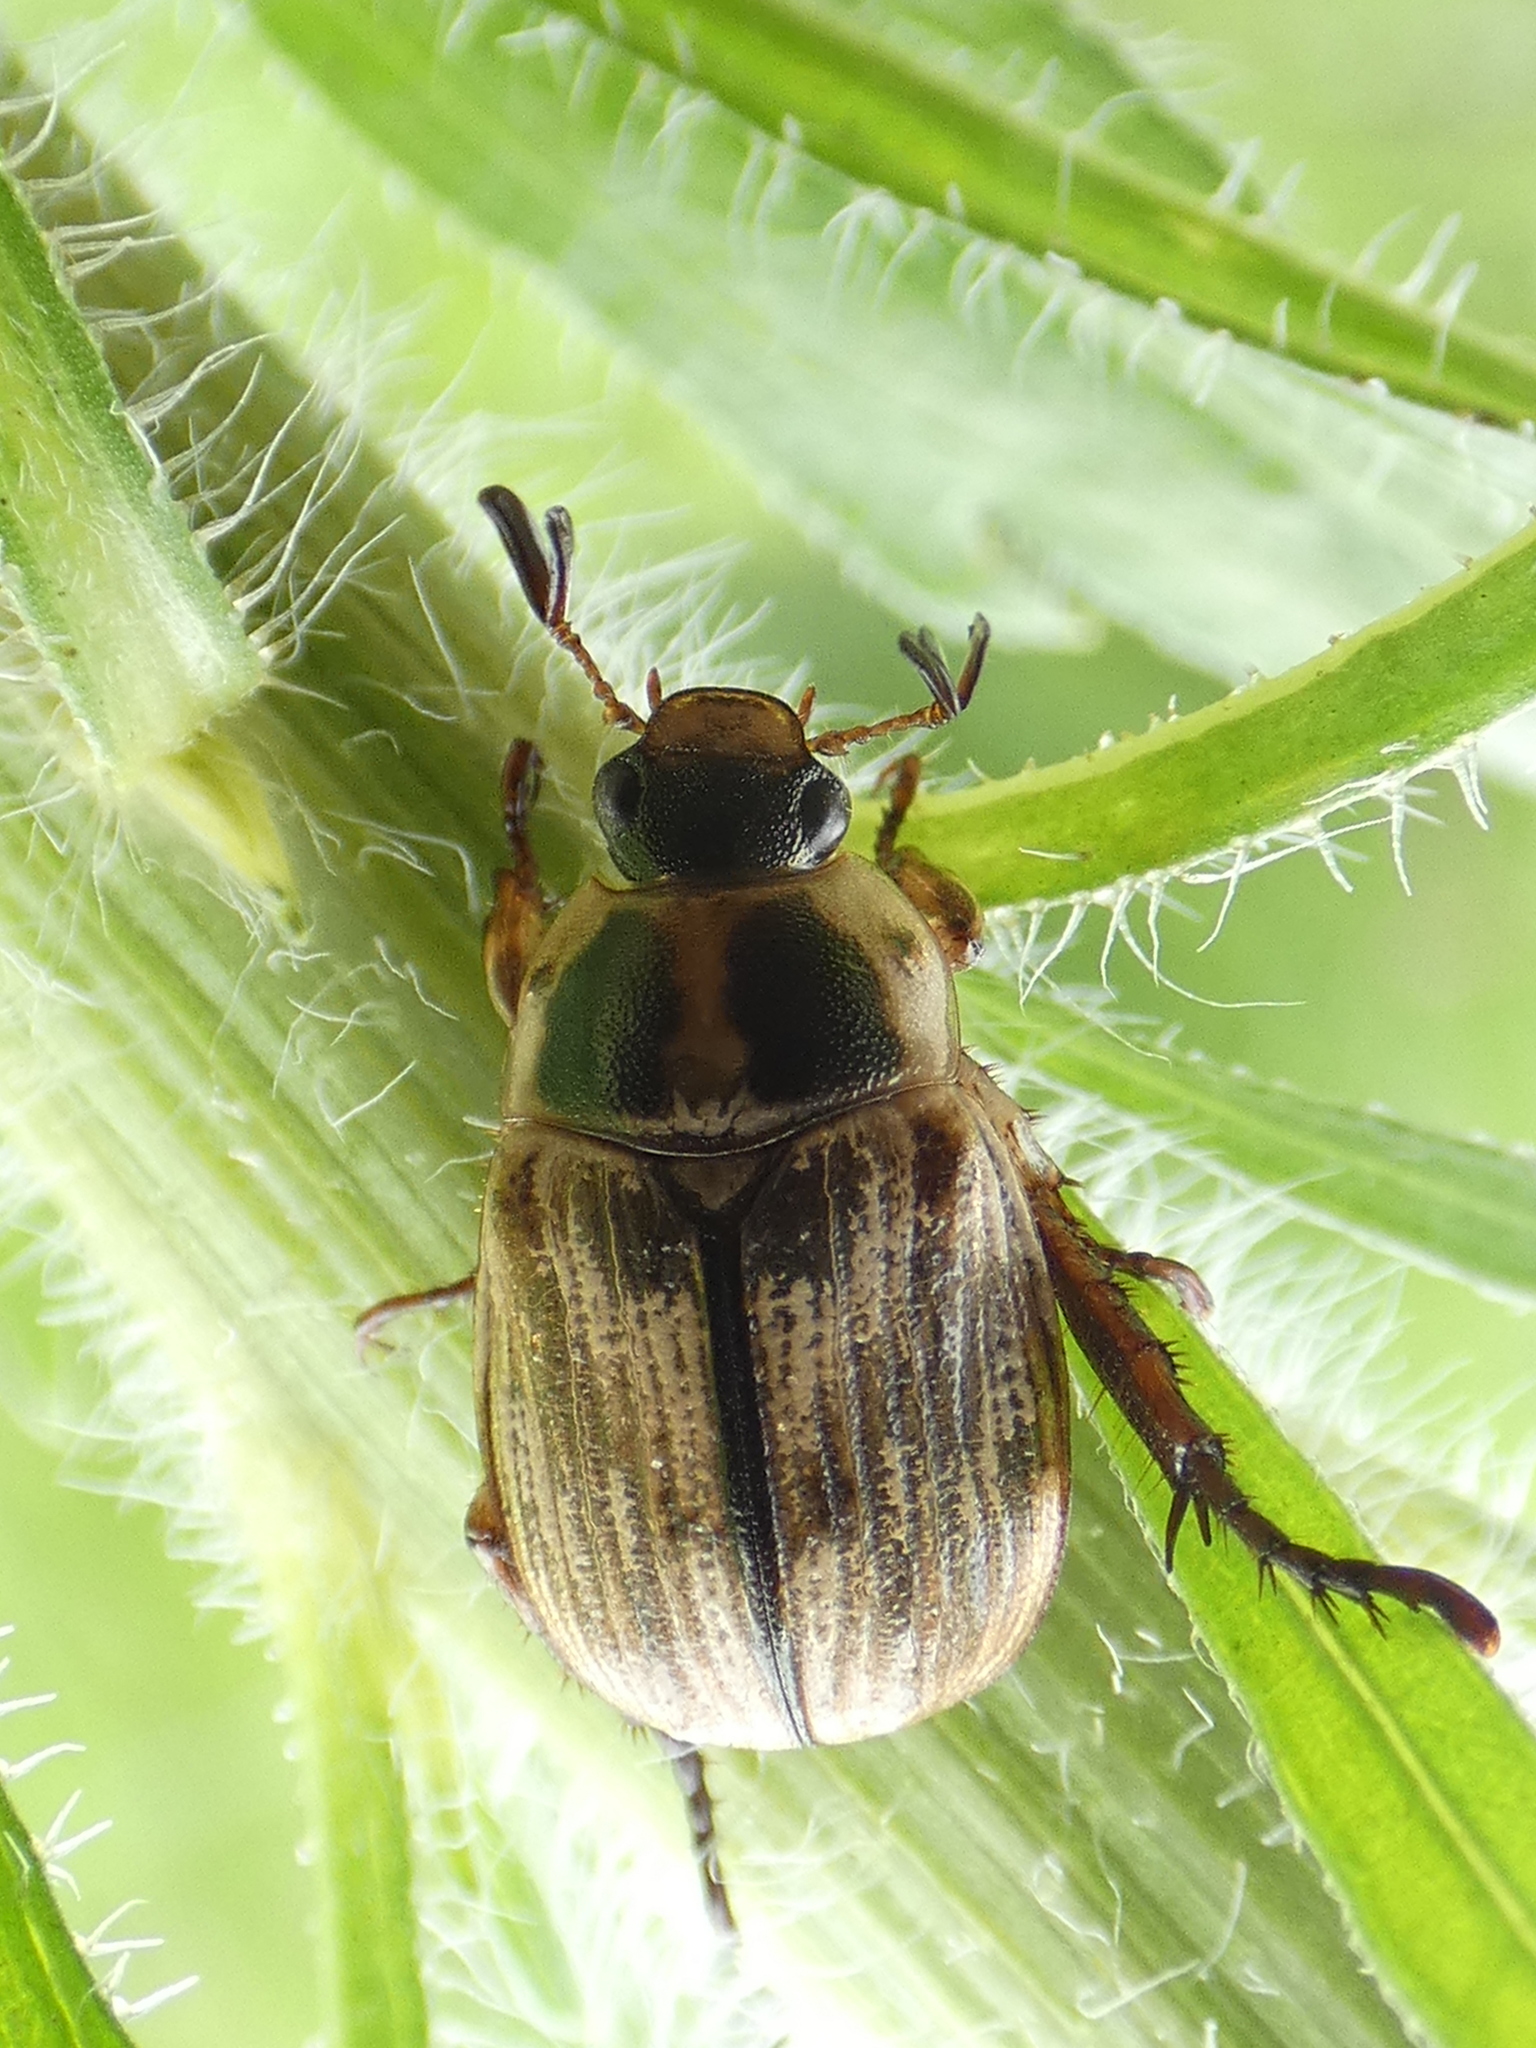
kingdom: Animalia
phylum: Arthropoda
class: Insecta
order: Coleoptera
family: Scarabaeidae
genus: Exomala
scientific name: Exomala orientalis
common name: Oriental beetle
